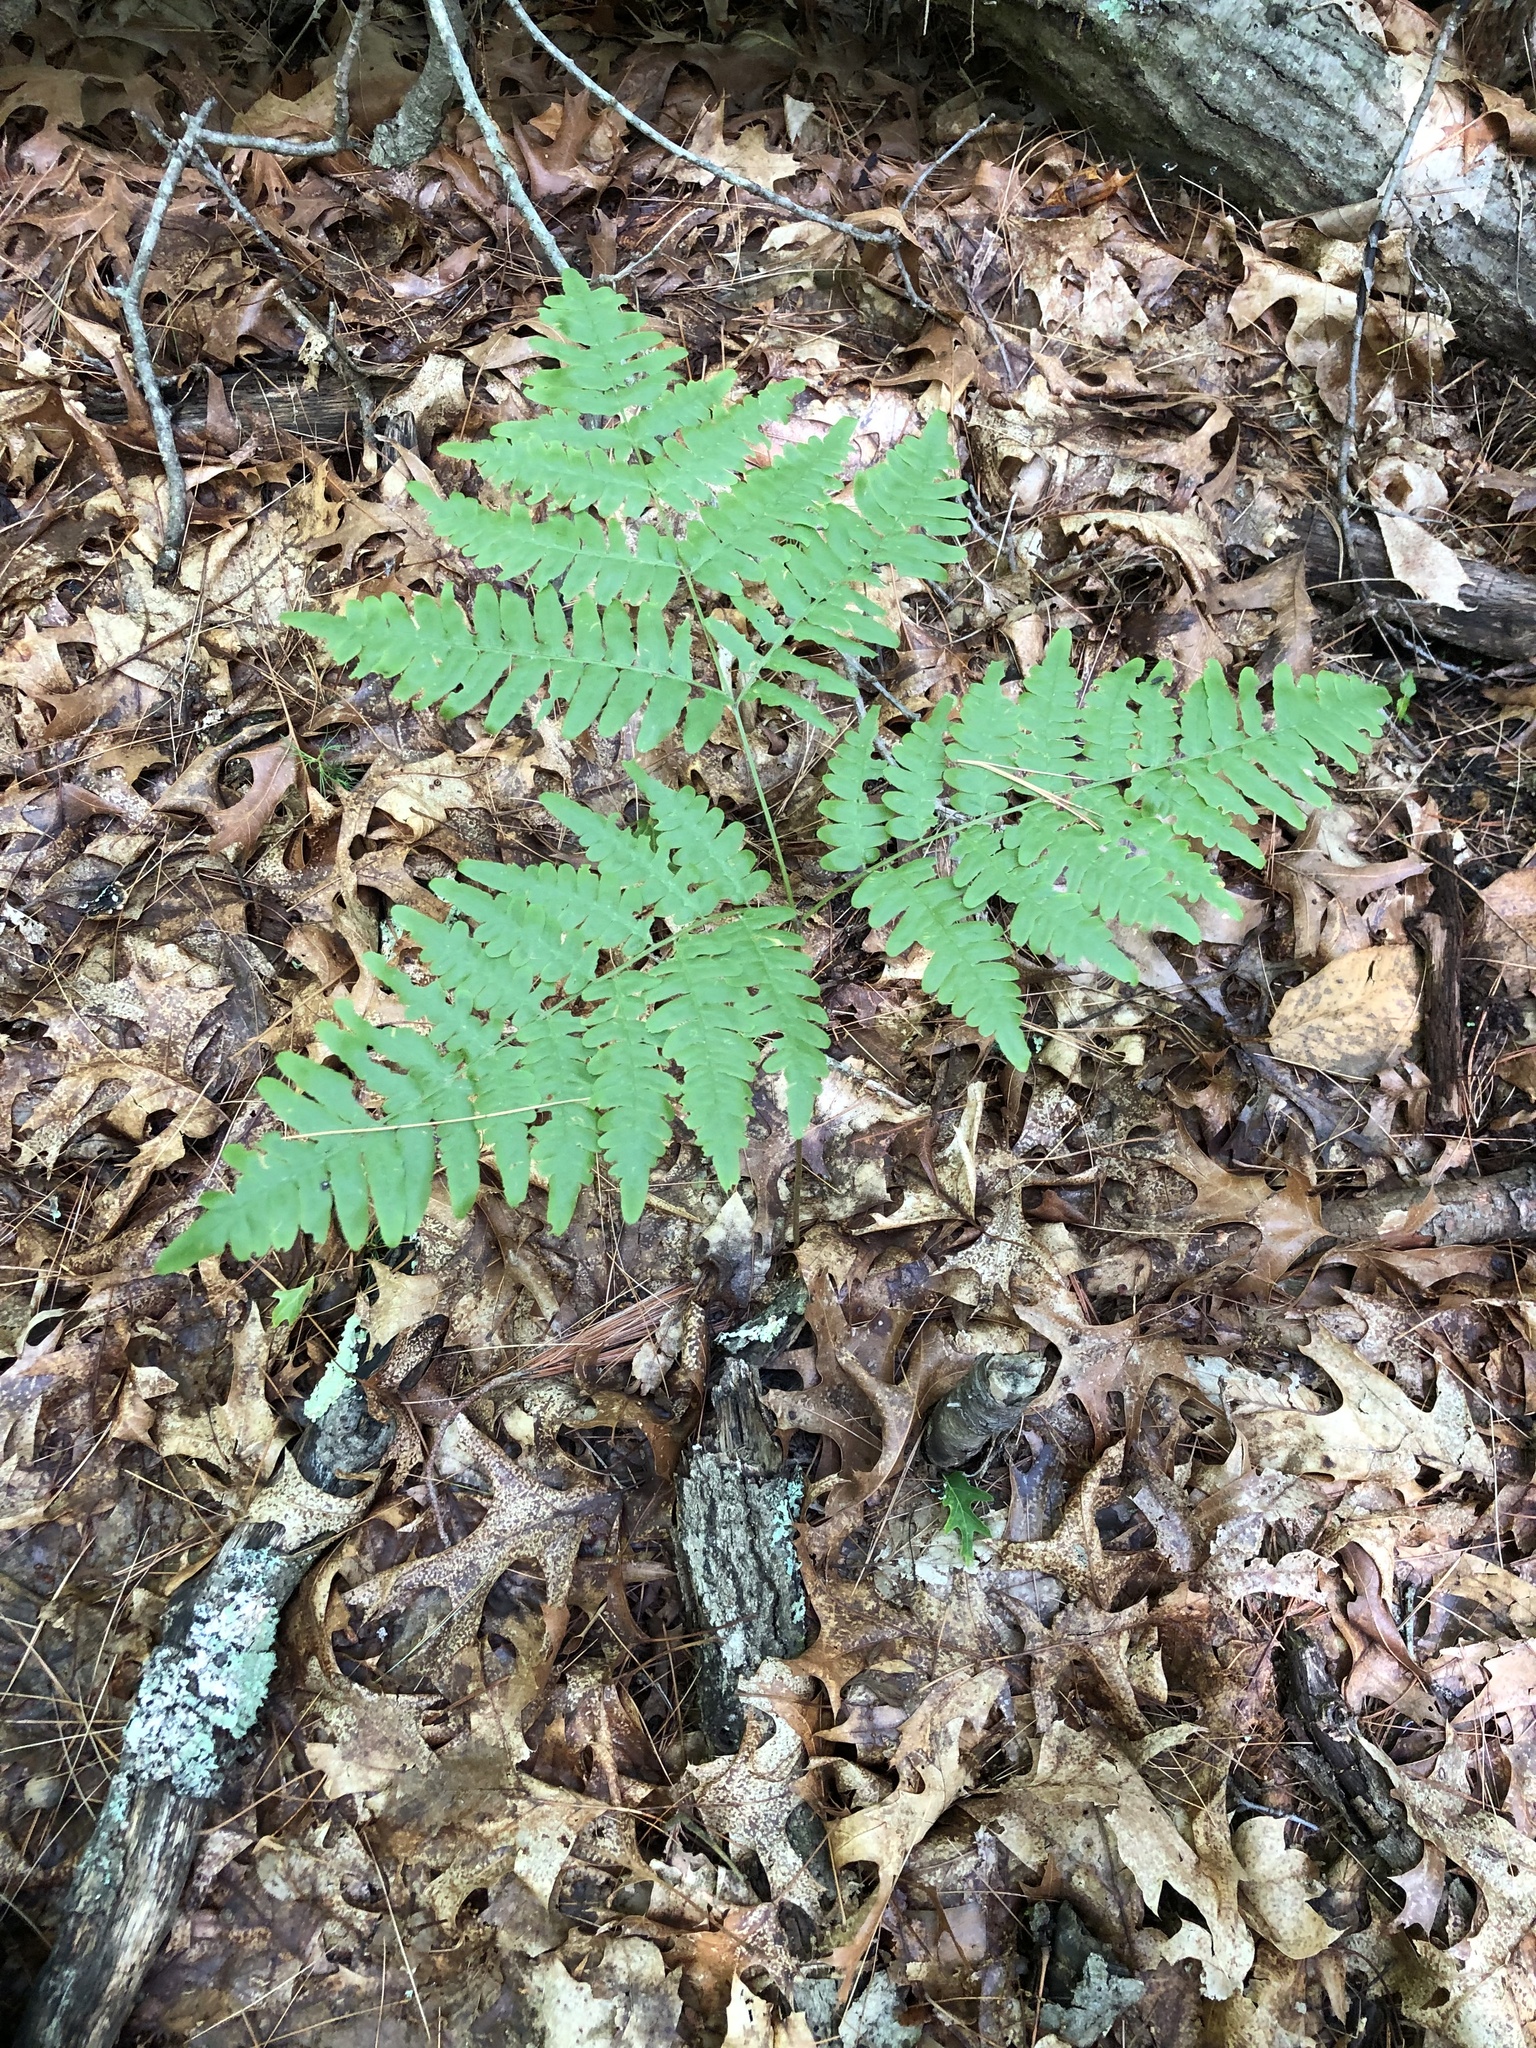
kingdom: Plantae
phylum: Tracheophyta
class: Polypodiopsida
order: Polypodiales
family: Dennstaedtiaceae
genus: Pteridium
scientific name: Pteridium aquilinum
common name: Bracken
